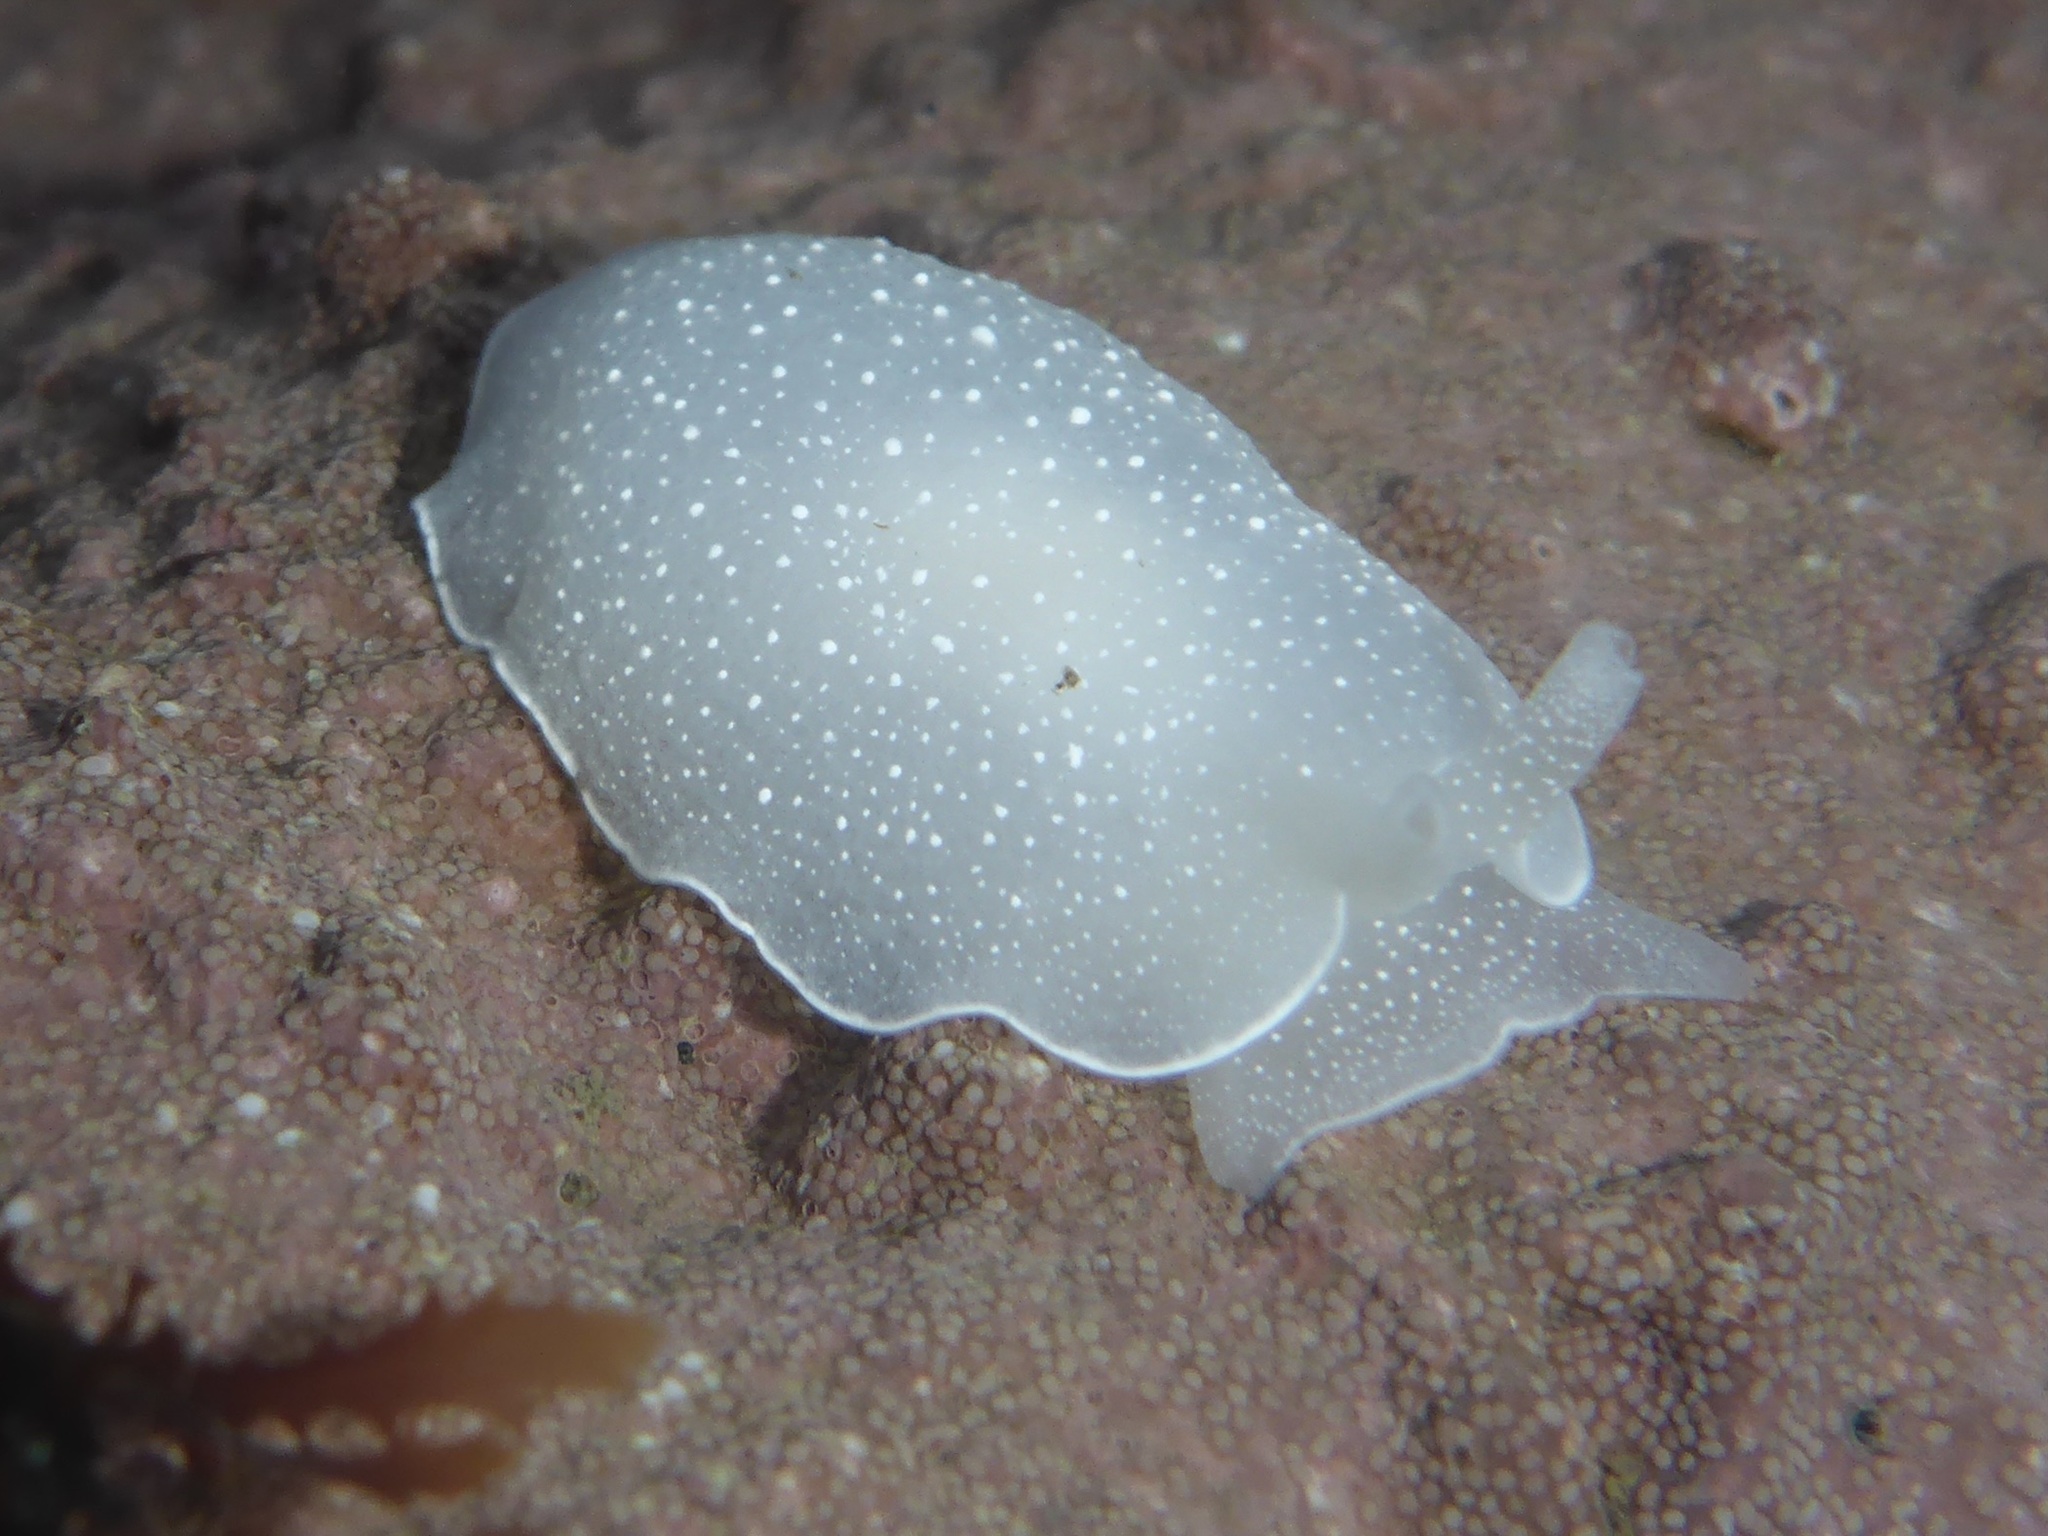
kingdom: Animalia
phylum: Mollusca
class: Gastropoda
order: Pleurobranchida
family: Pleurobranchidae
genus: Boreoberthella
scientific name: Boreoberthella
